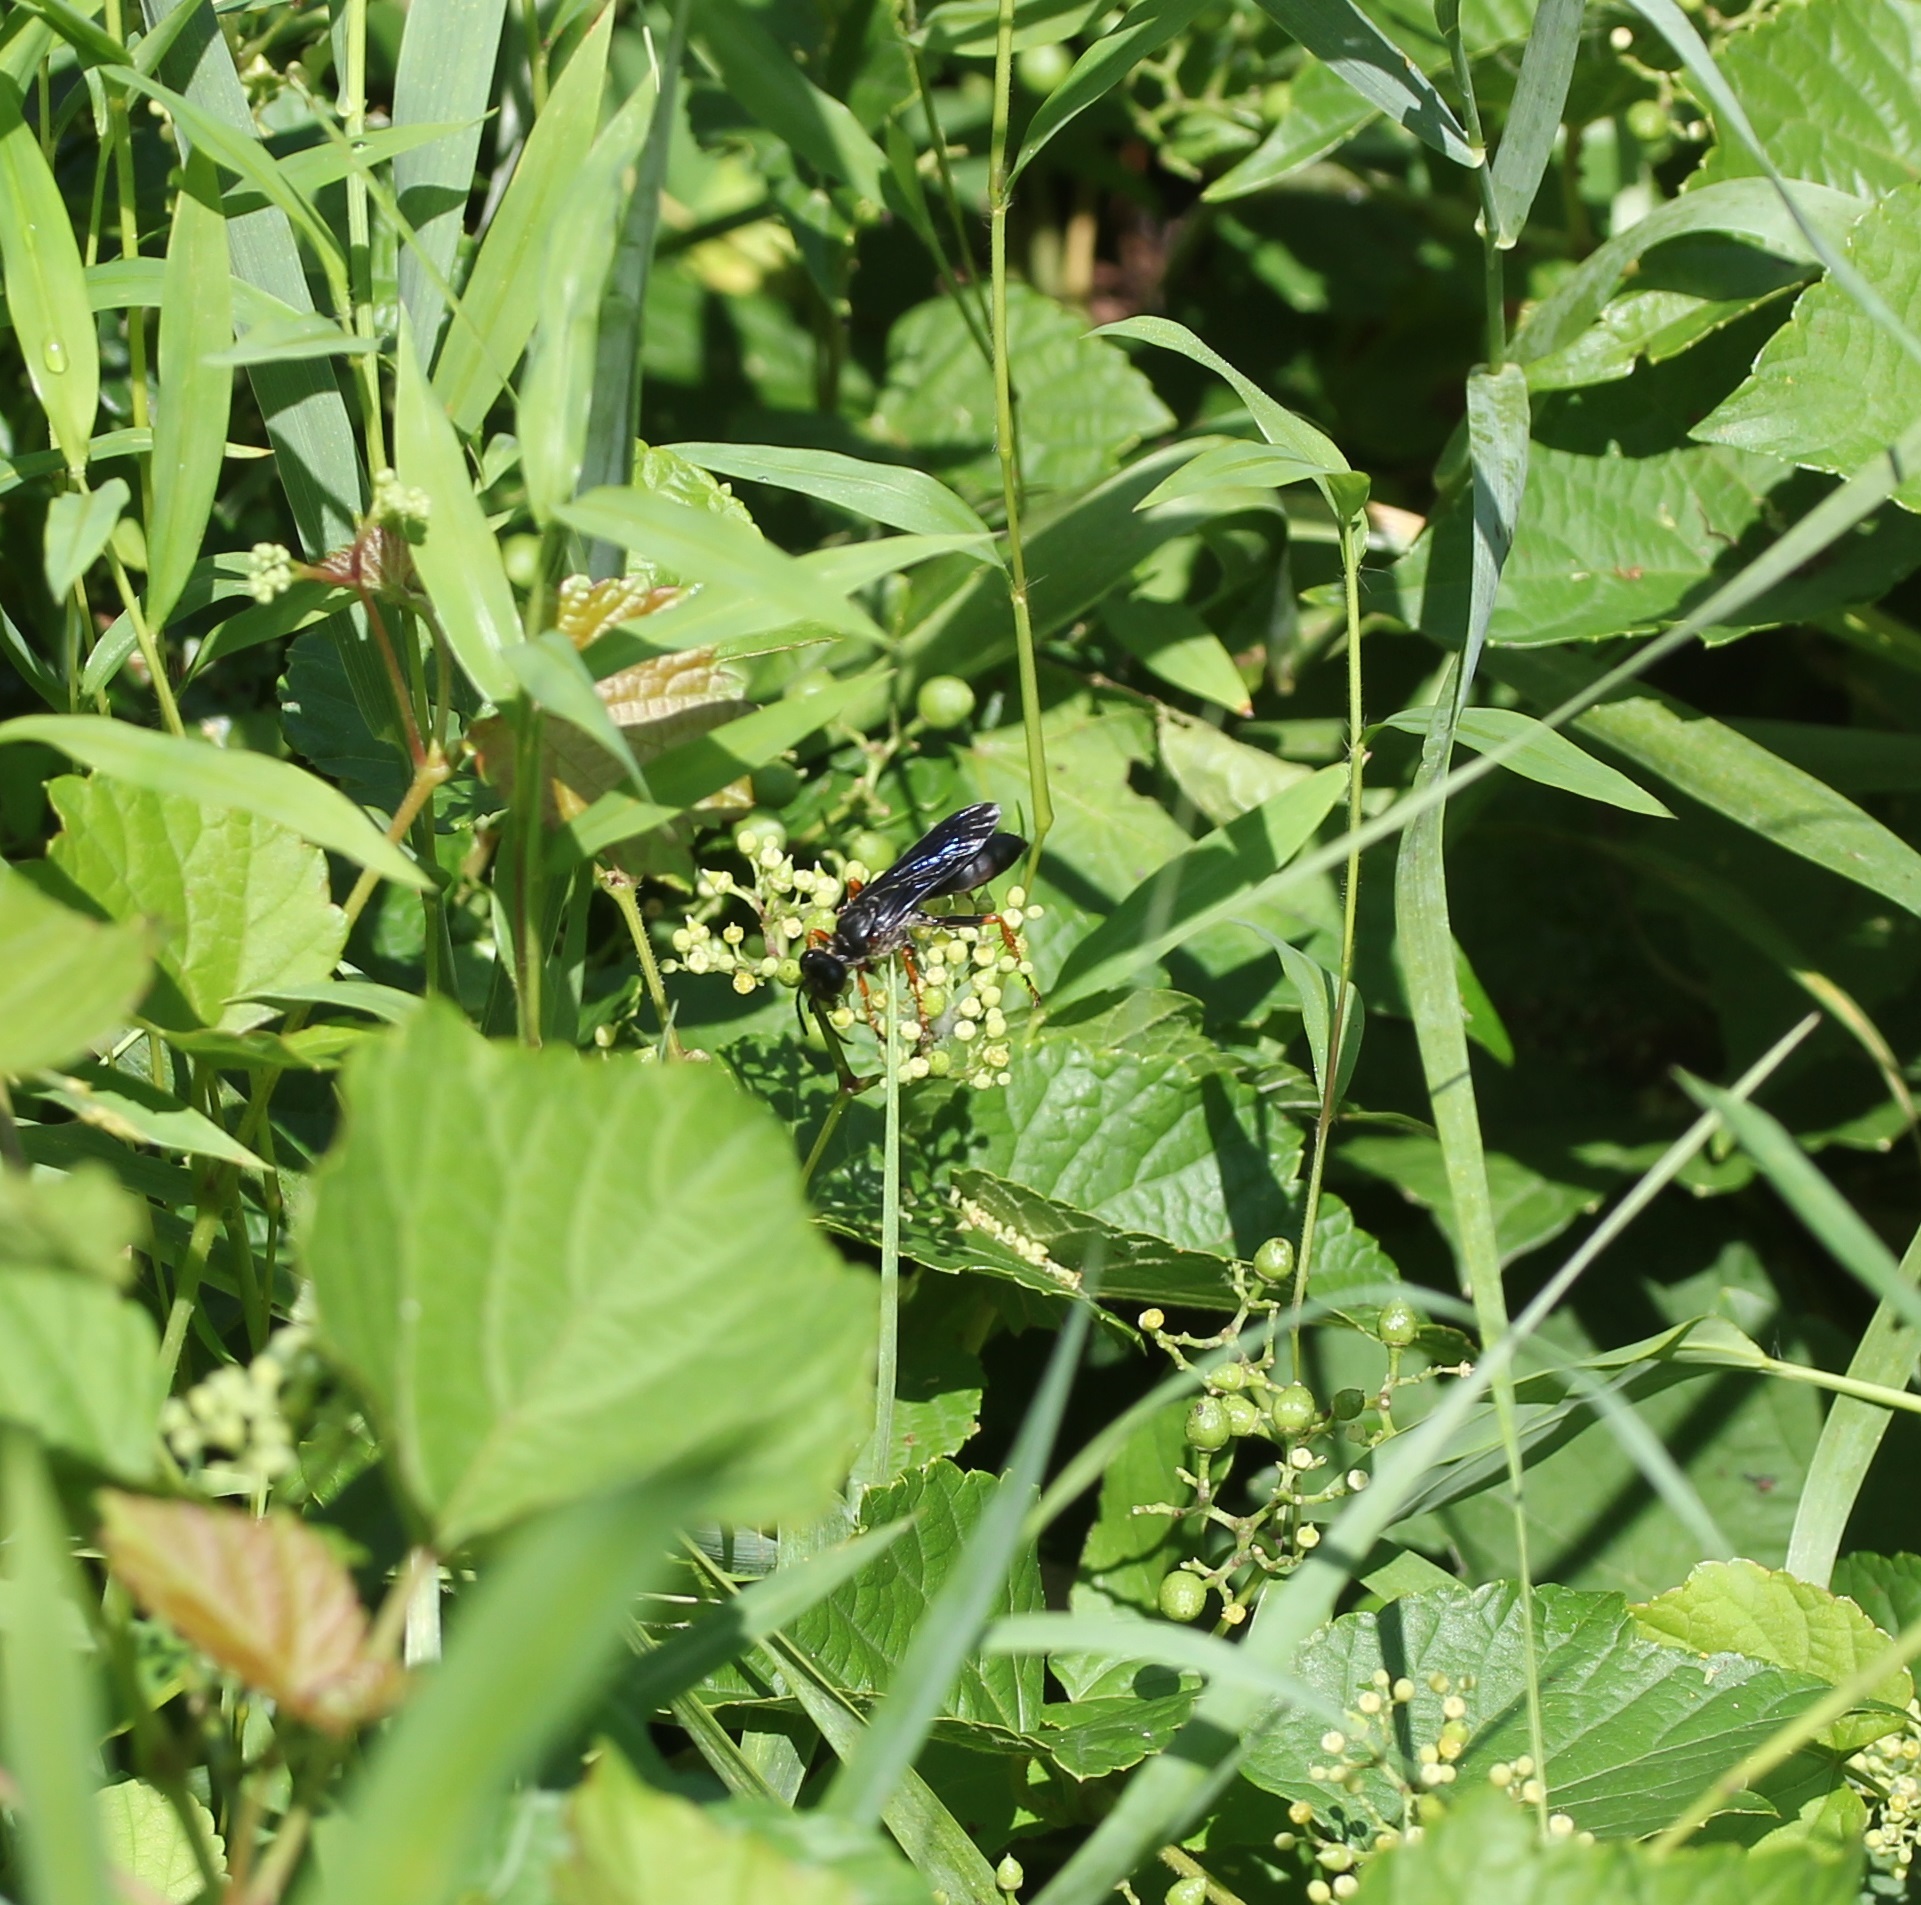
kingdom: Animalia
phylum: Arthropoda
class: Insecta
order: Hymenoptera
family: Sphecidae
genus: Sphex
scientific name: Sphex nudus
